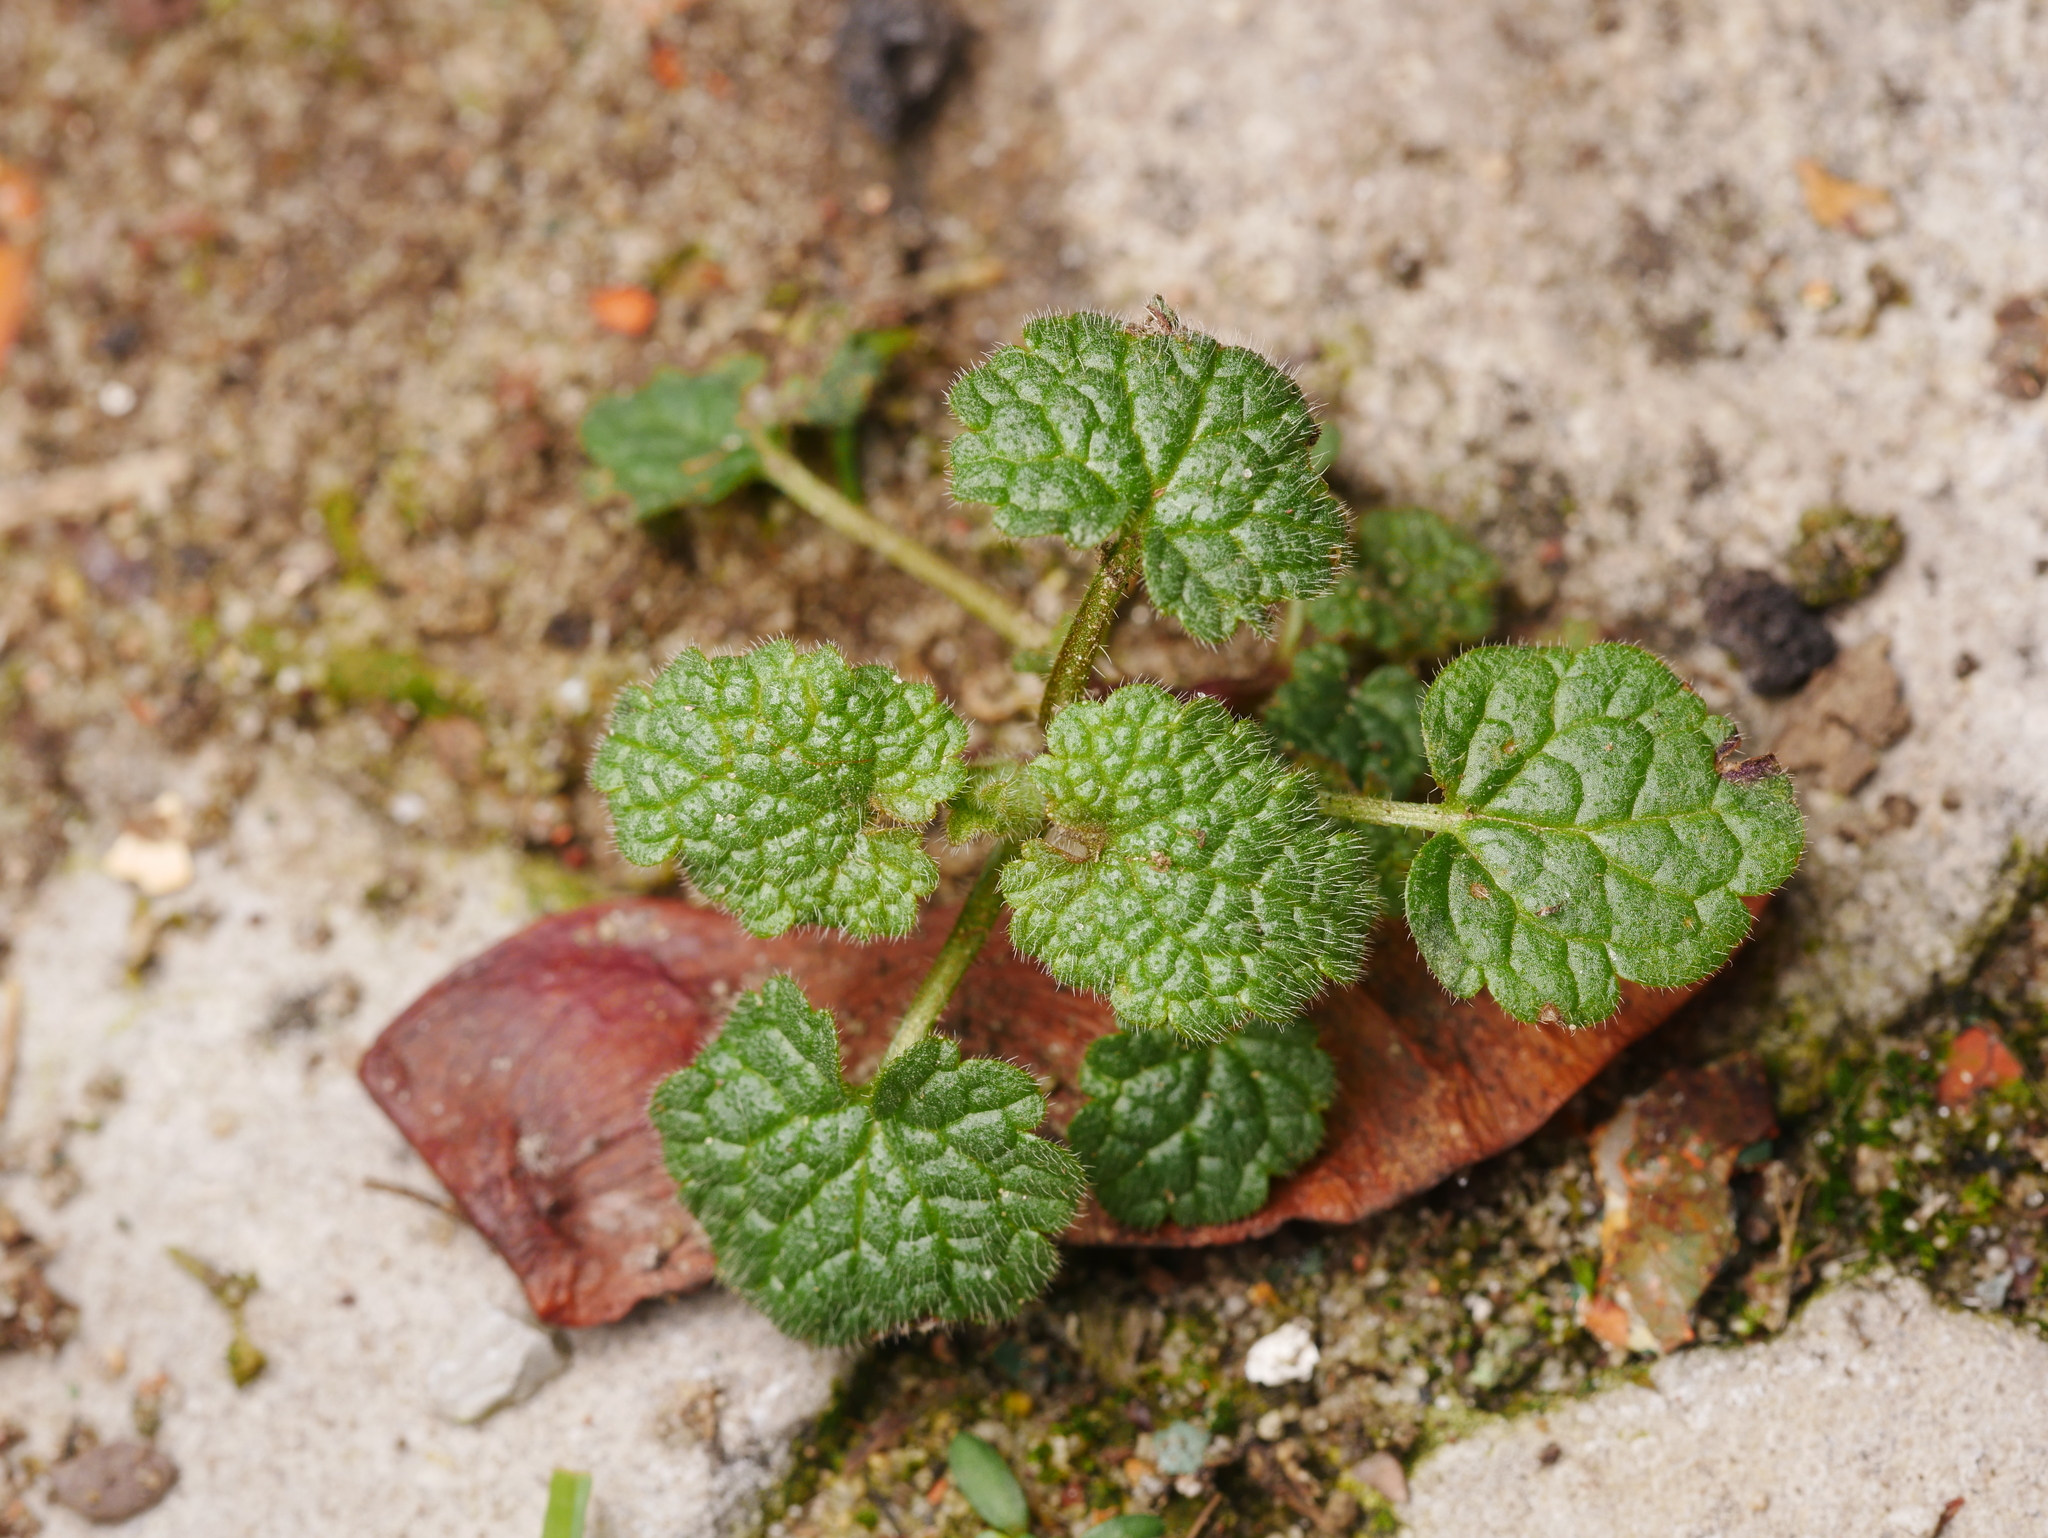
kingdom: Plantae
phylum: Tracheophyta
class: Magnoliopsida
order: Lamiales
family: Lamiaceae
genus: Lamium
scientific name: Lamium purpureum
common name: Red dead-nettle
